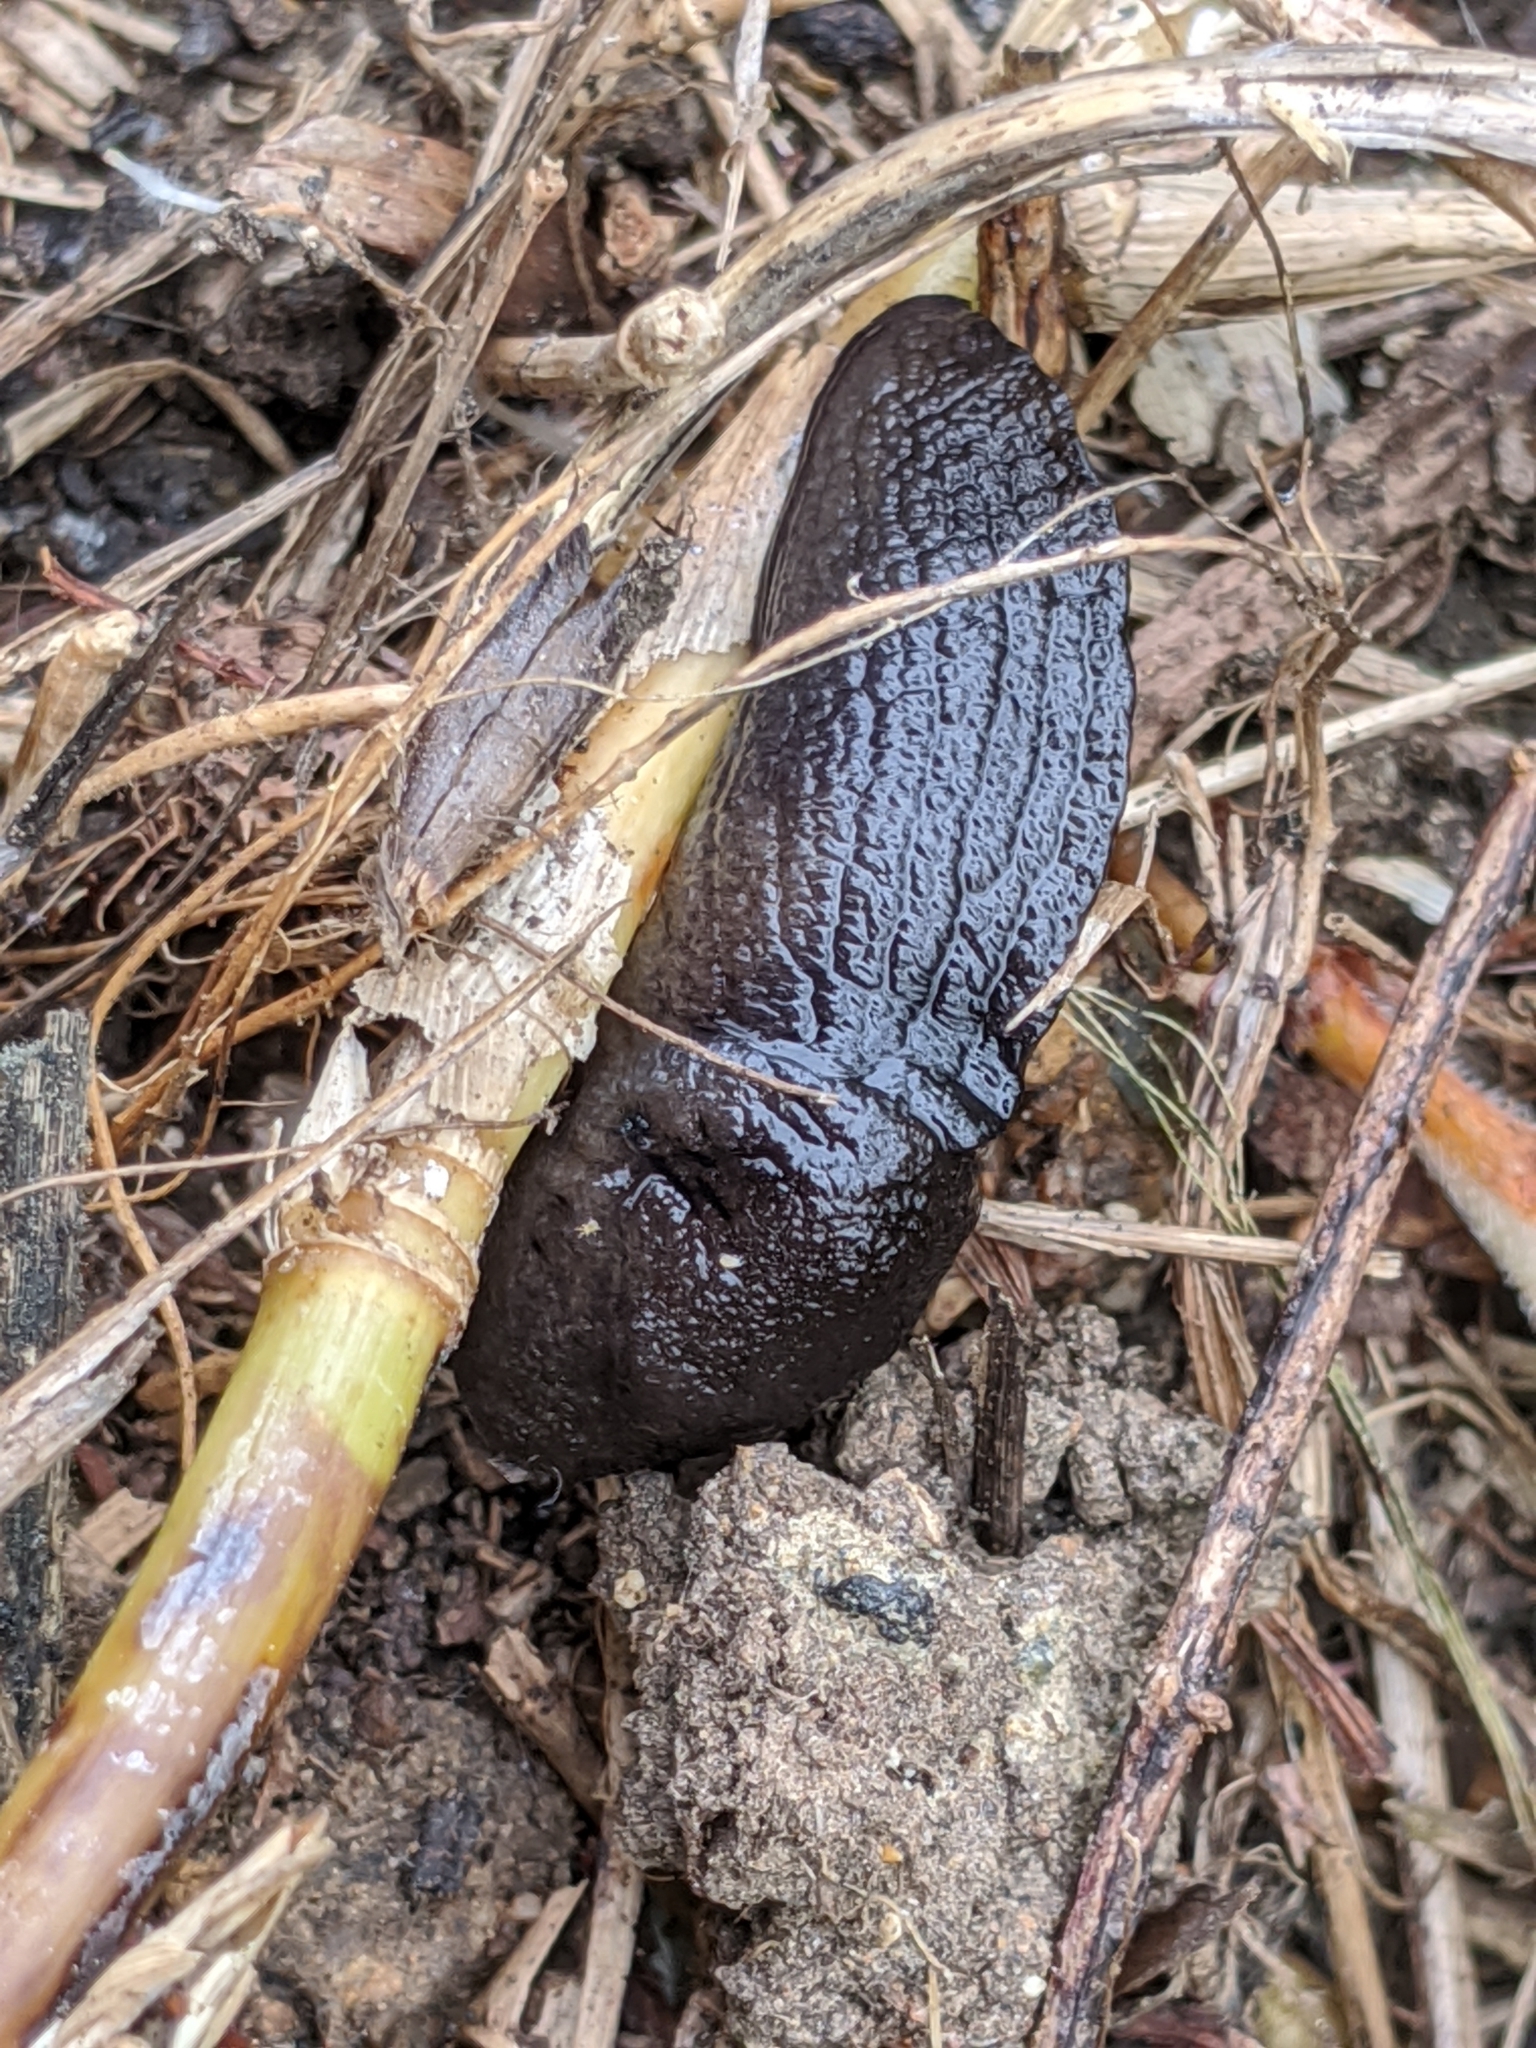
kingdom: Animalia
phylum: Mollusca
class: Gastropoda
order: Stylommatophora
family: Milacidae
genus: Milax
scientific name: Milax gagates
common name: Greenhouse slug
